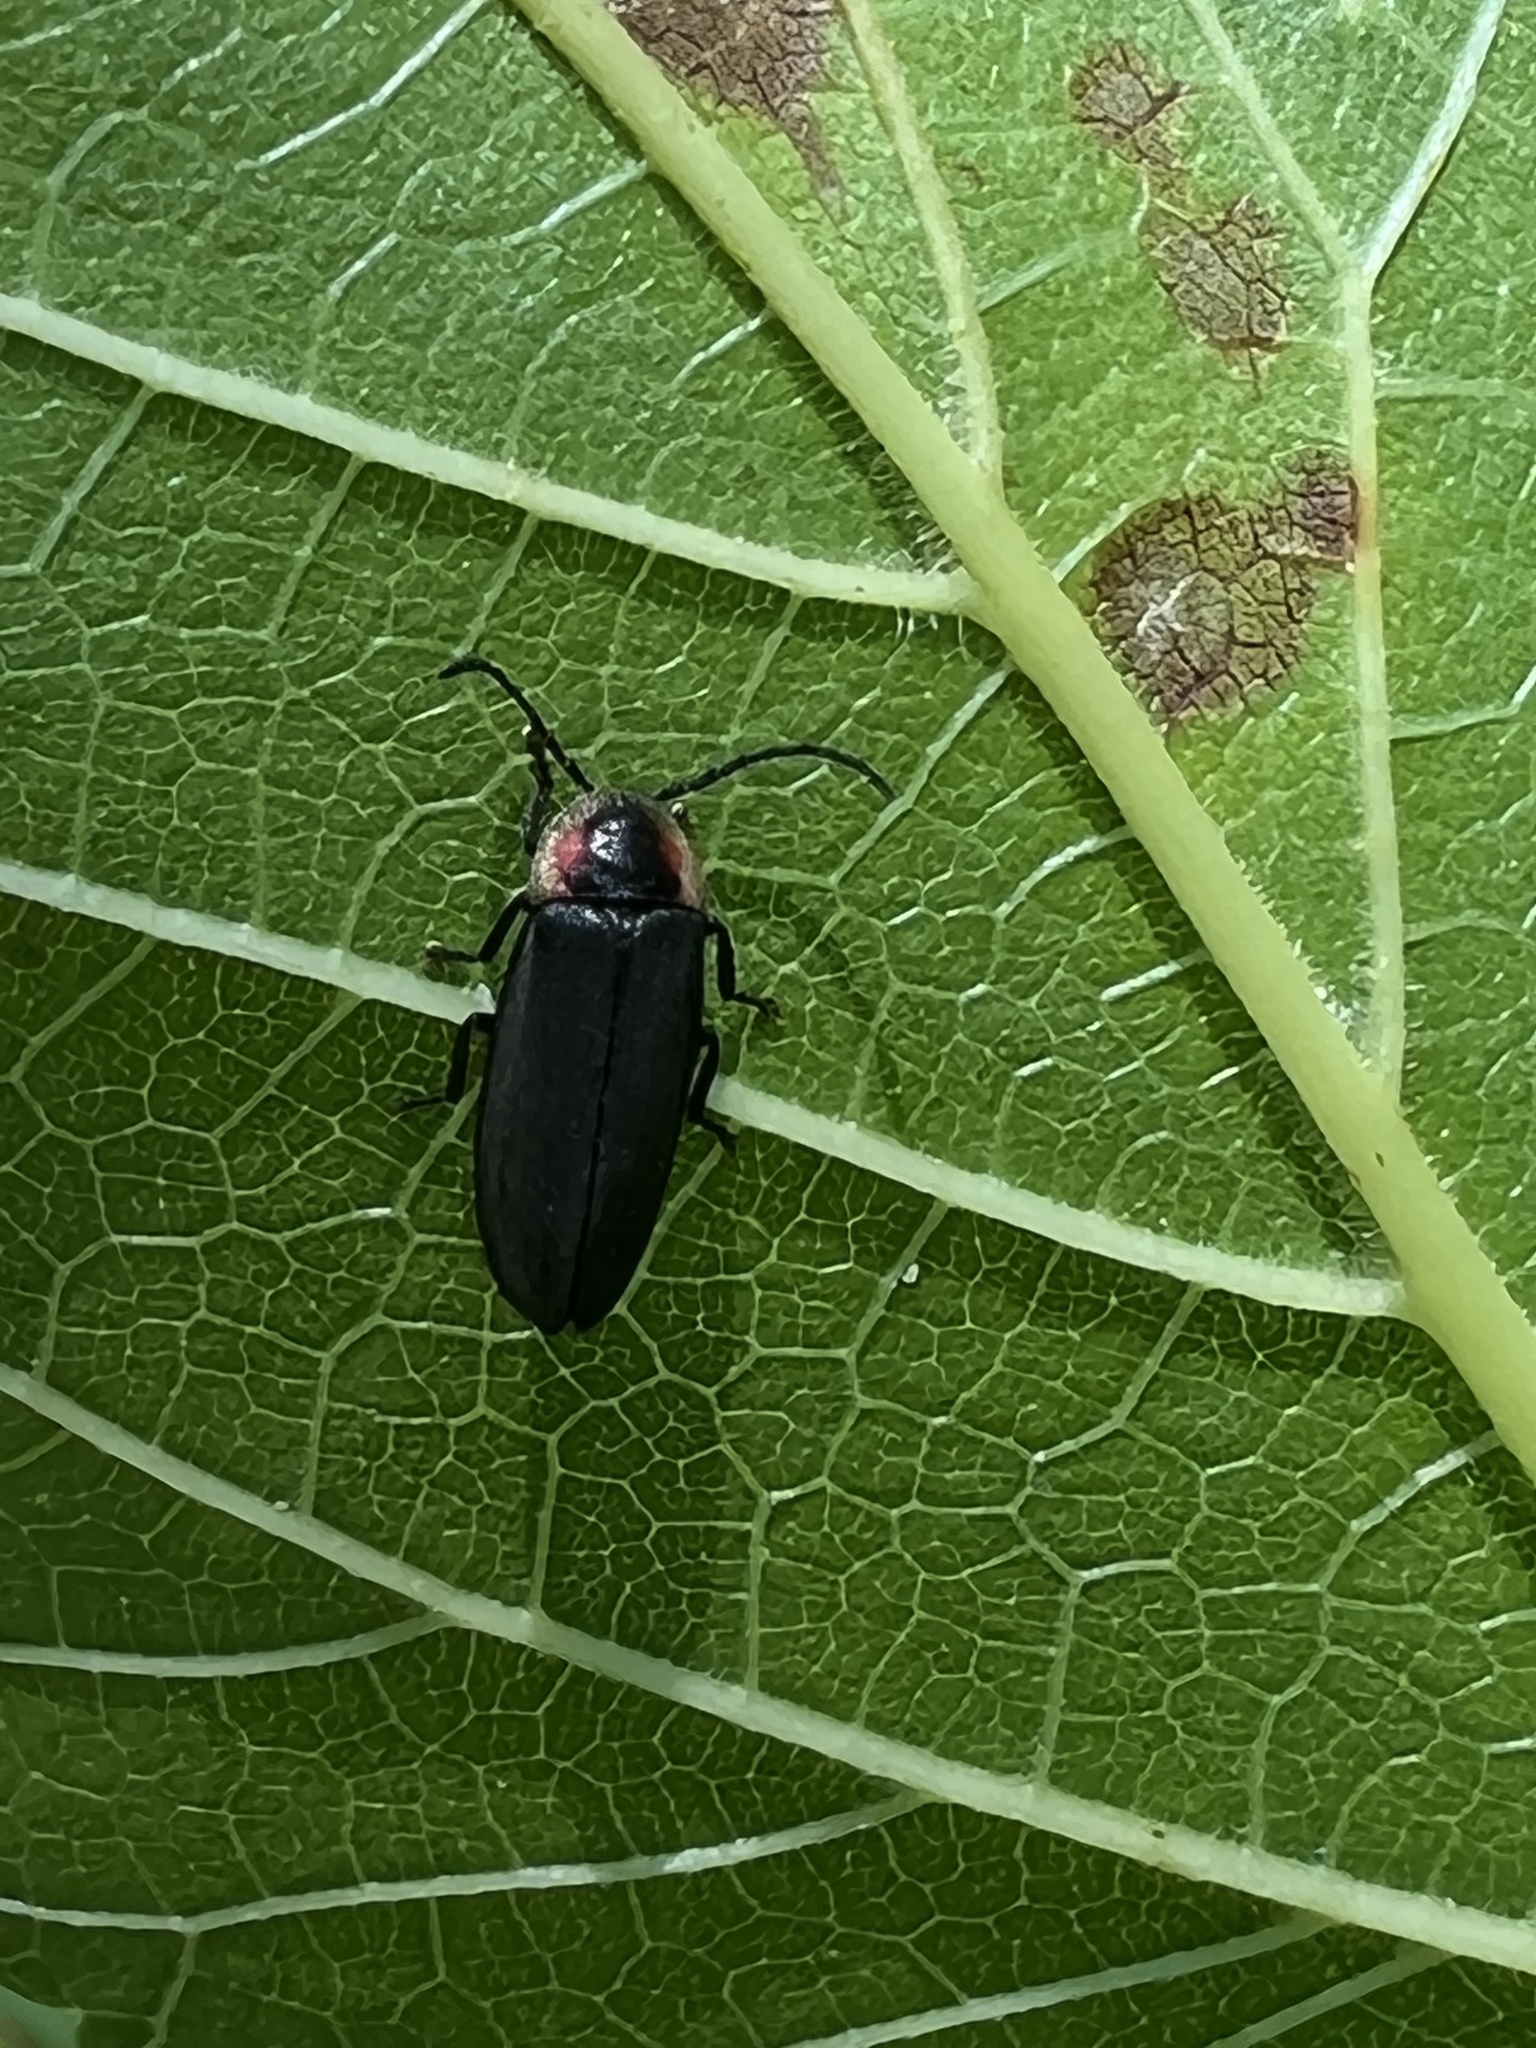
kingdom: Animalia
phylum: Arthropoda
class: Insecta
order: Coleoptera
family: Lampyridae
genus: Pyropyga
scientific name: Pyropyga decipiens
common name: Sneaky elf
